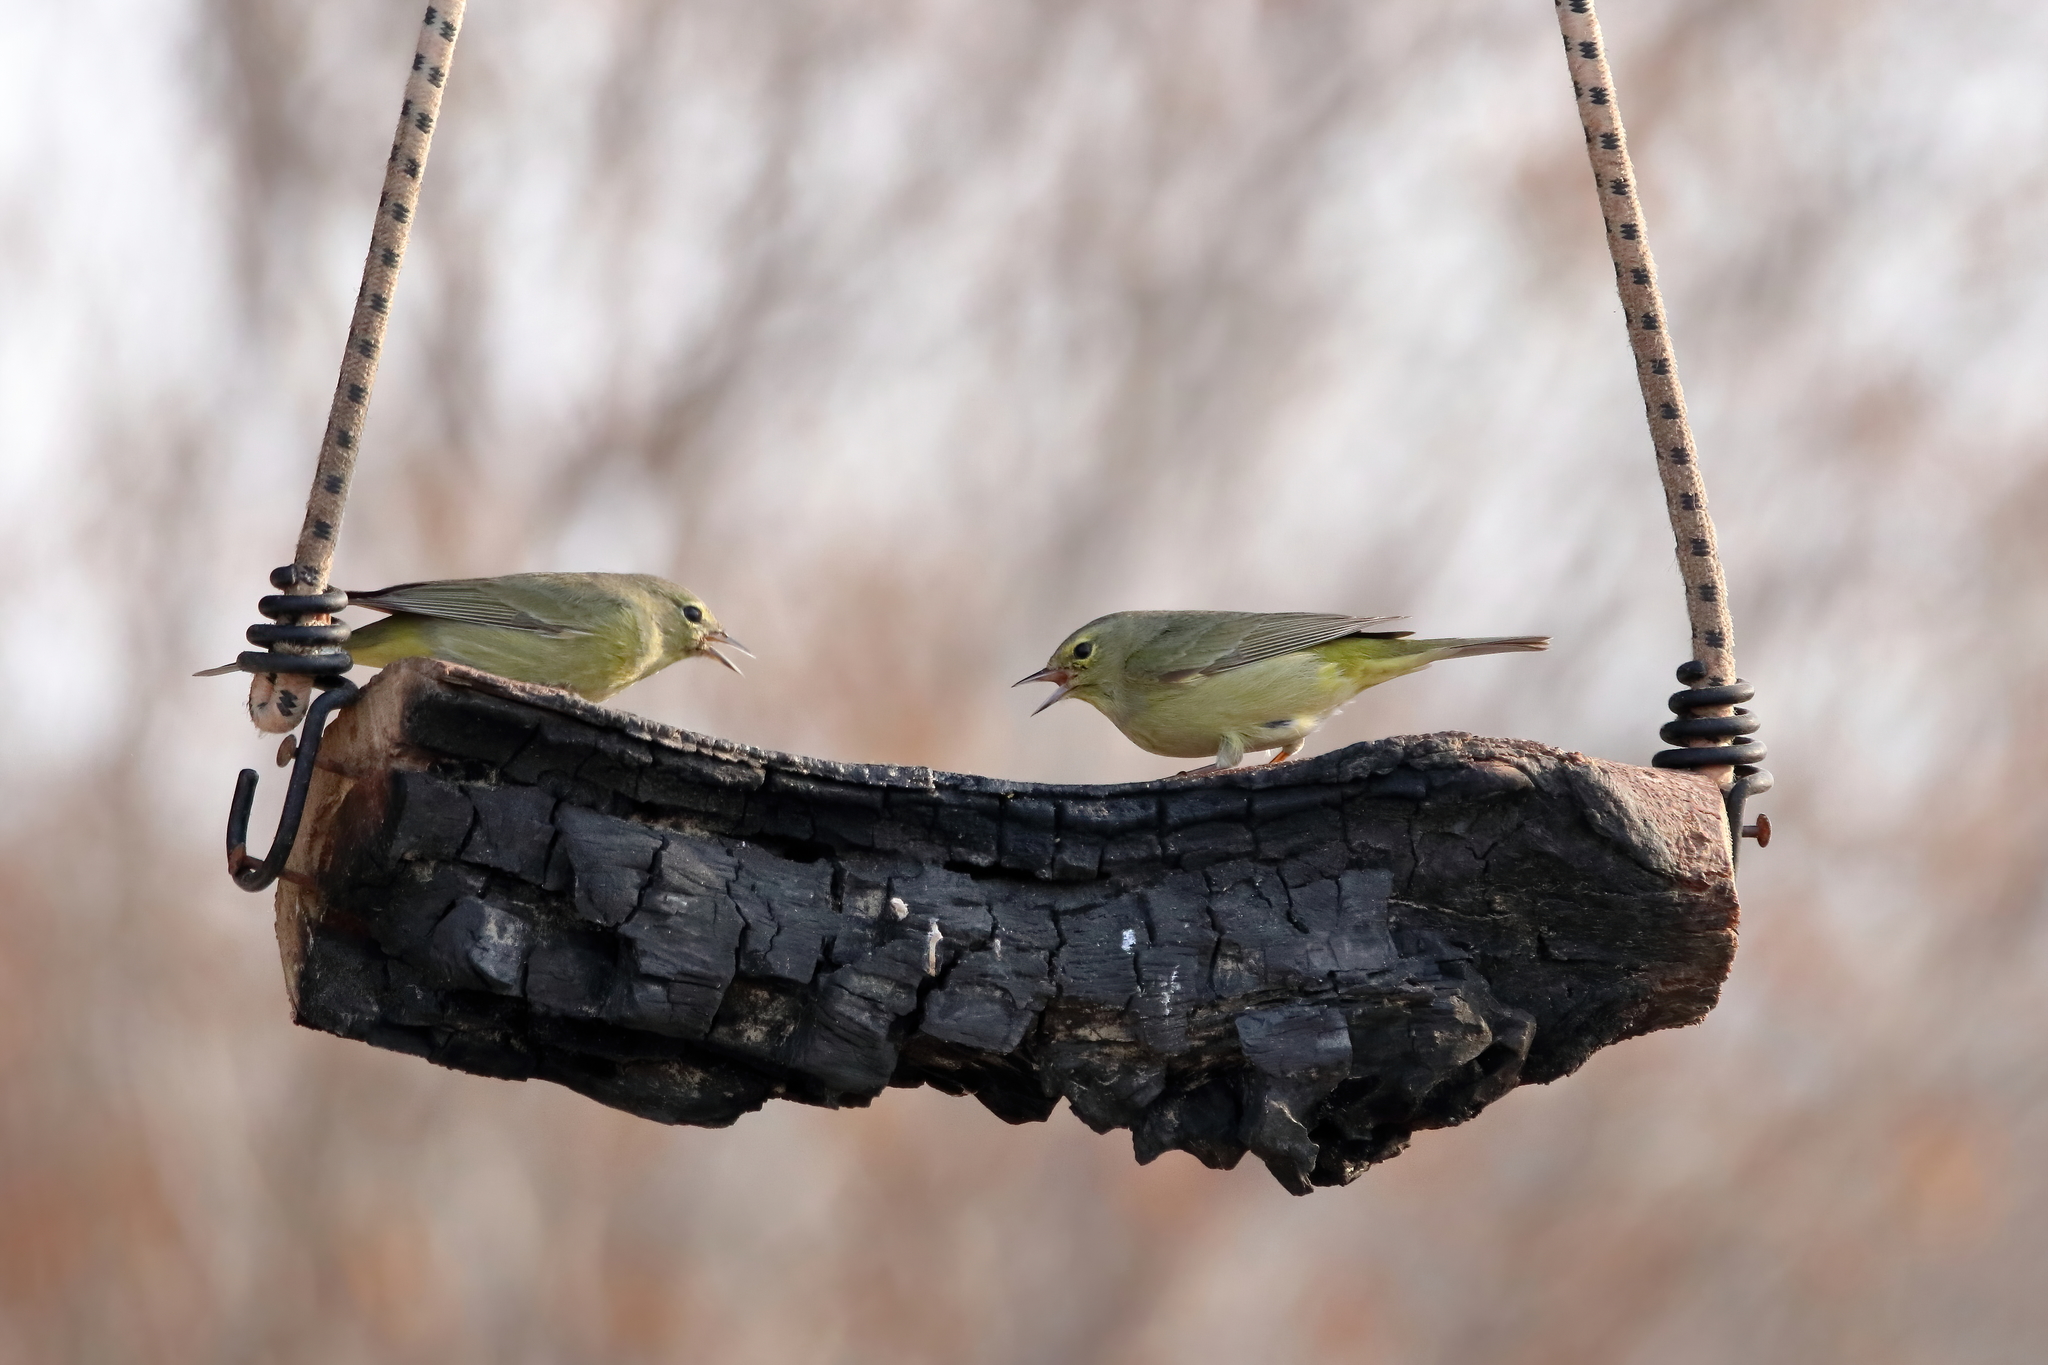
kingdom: Animalia
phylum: Chordata
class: Aves
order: Passeriformes
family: Parulidae
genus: Leiothlypis
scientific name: Leiothlypis celata
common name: Orange-crowned warbler
